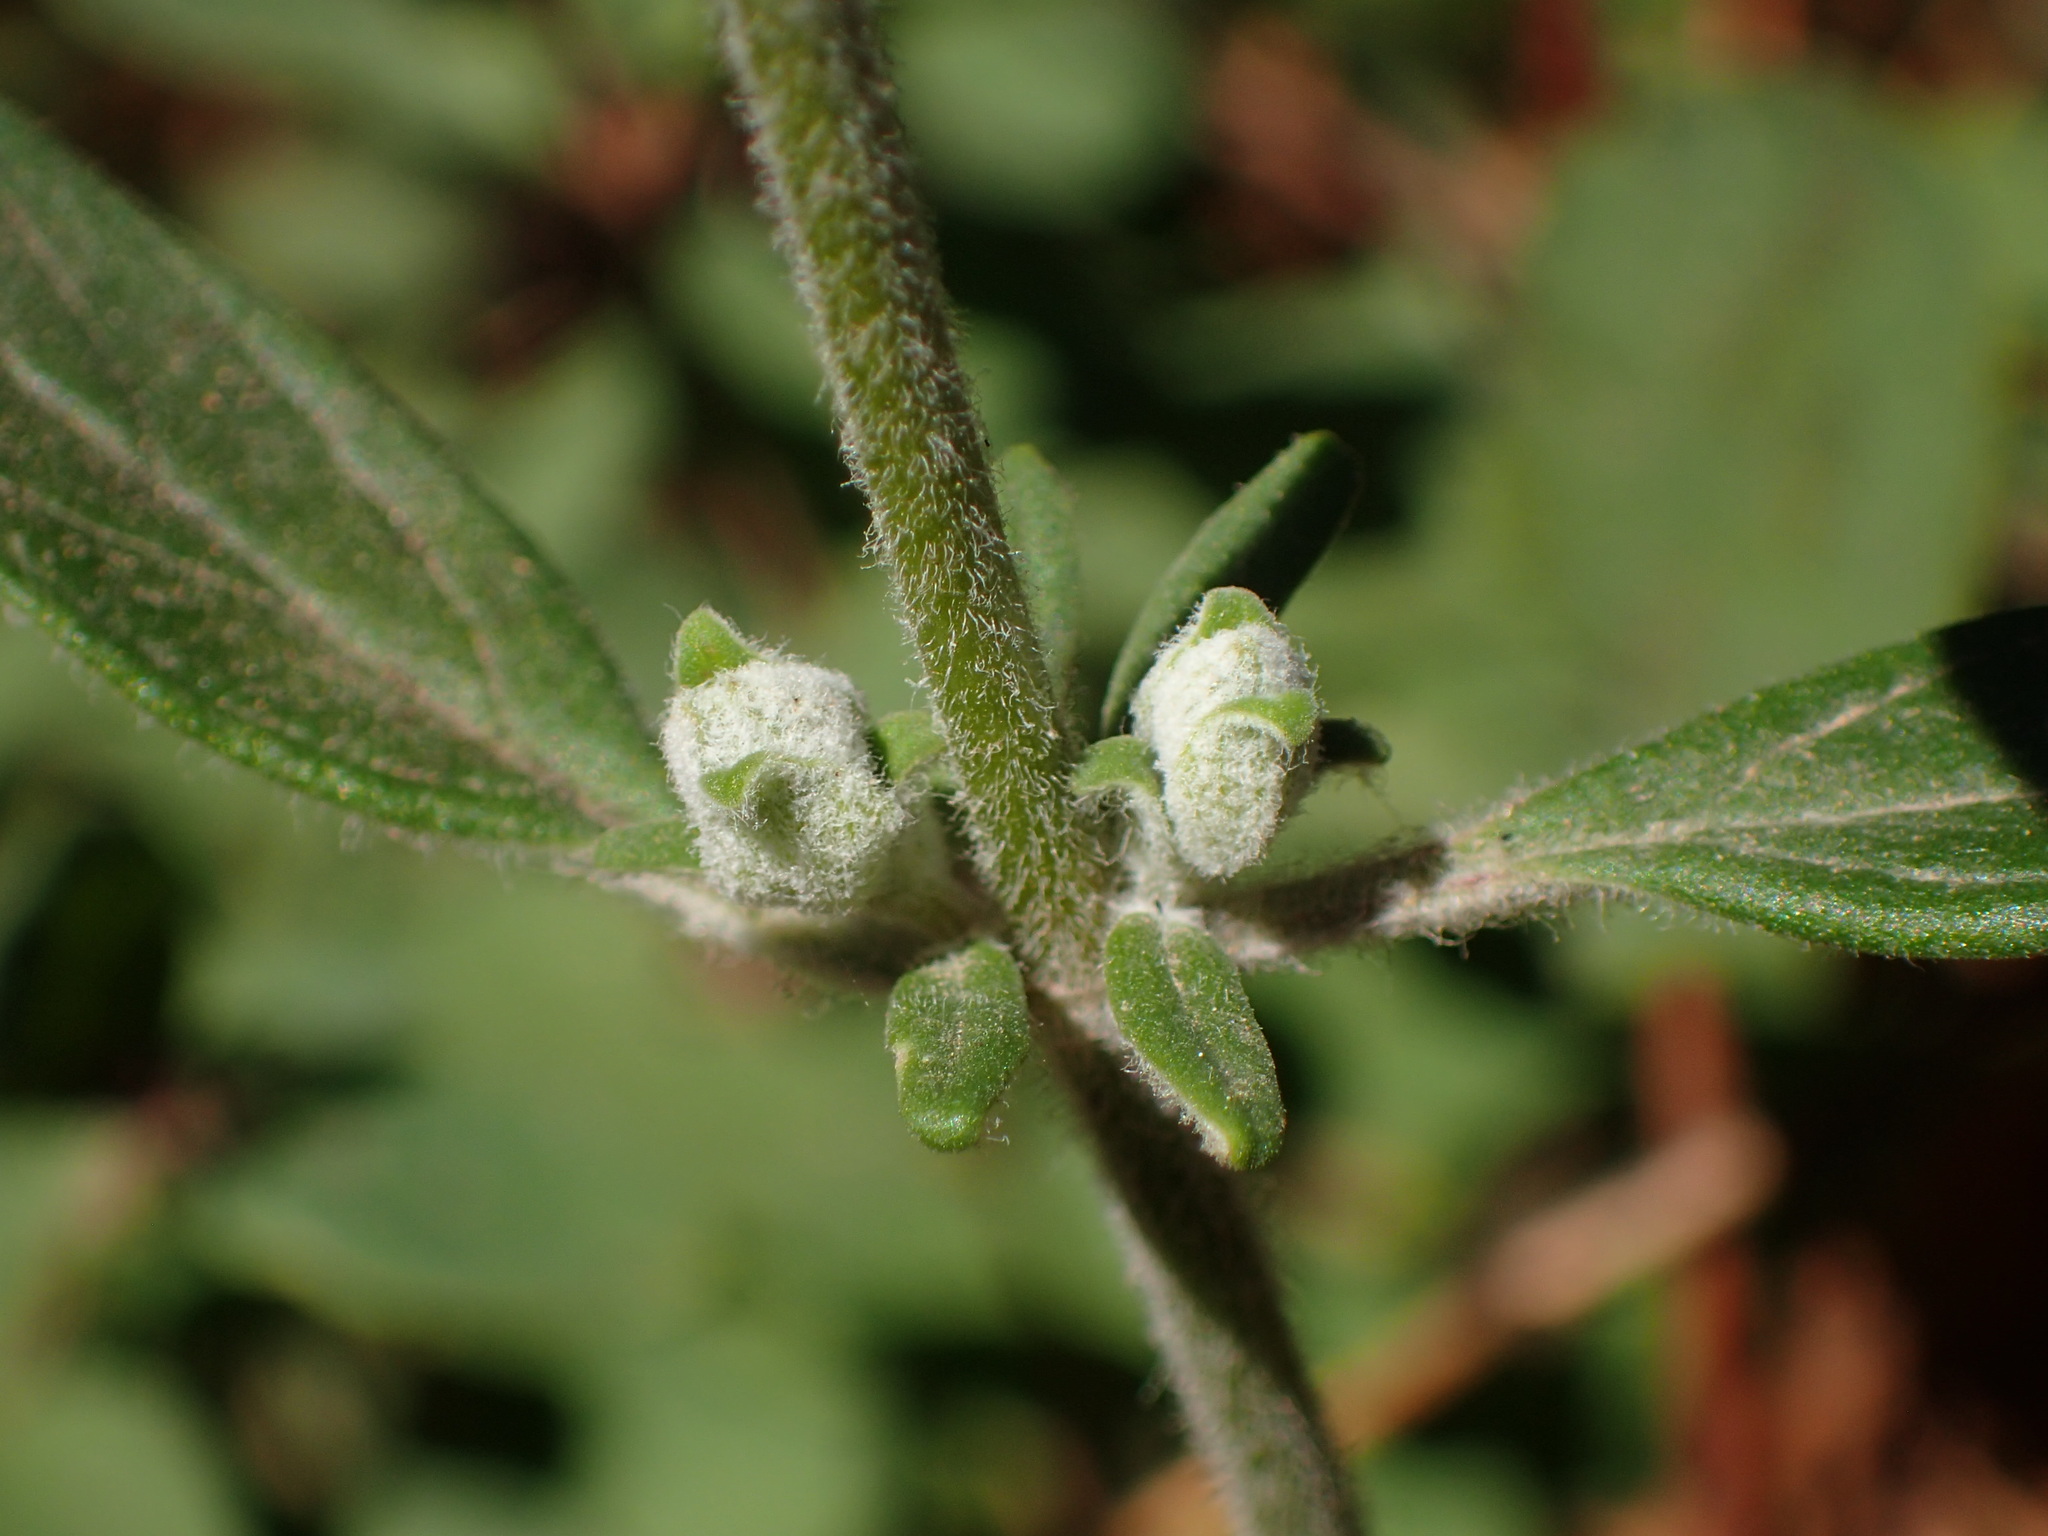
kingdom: Plantae
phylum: Tracheophyta
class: Magnoliopsida
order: Lamiales
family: Lamiaceae
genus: Monardella
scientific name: Monardella hypoleuca
